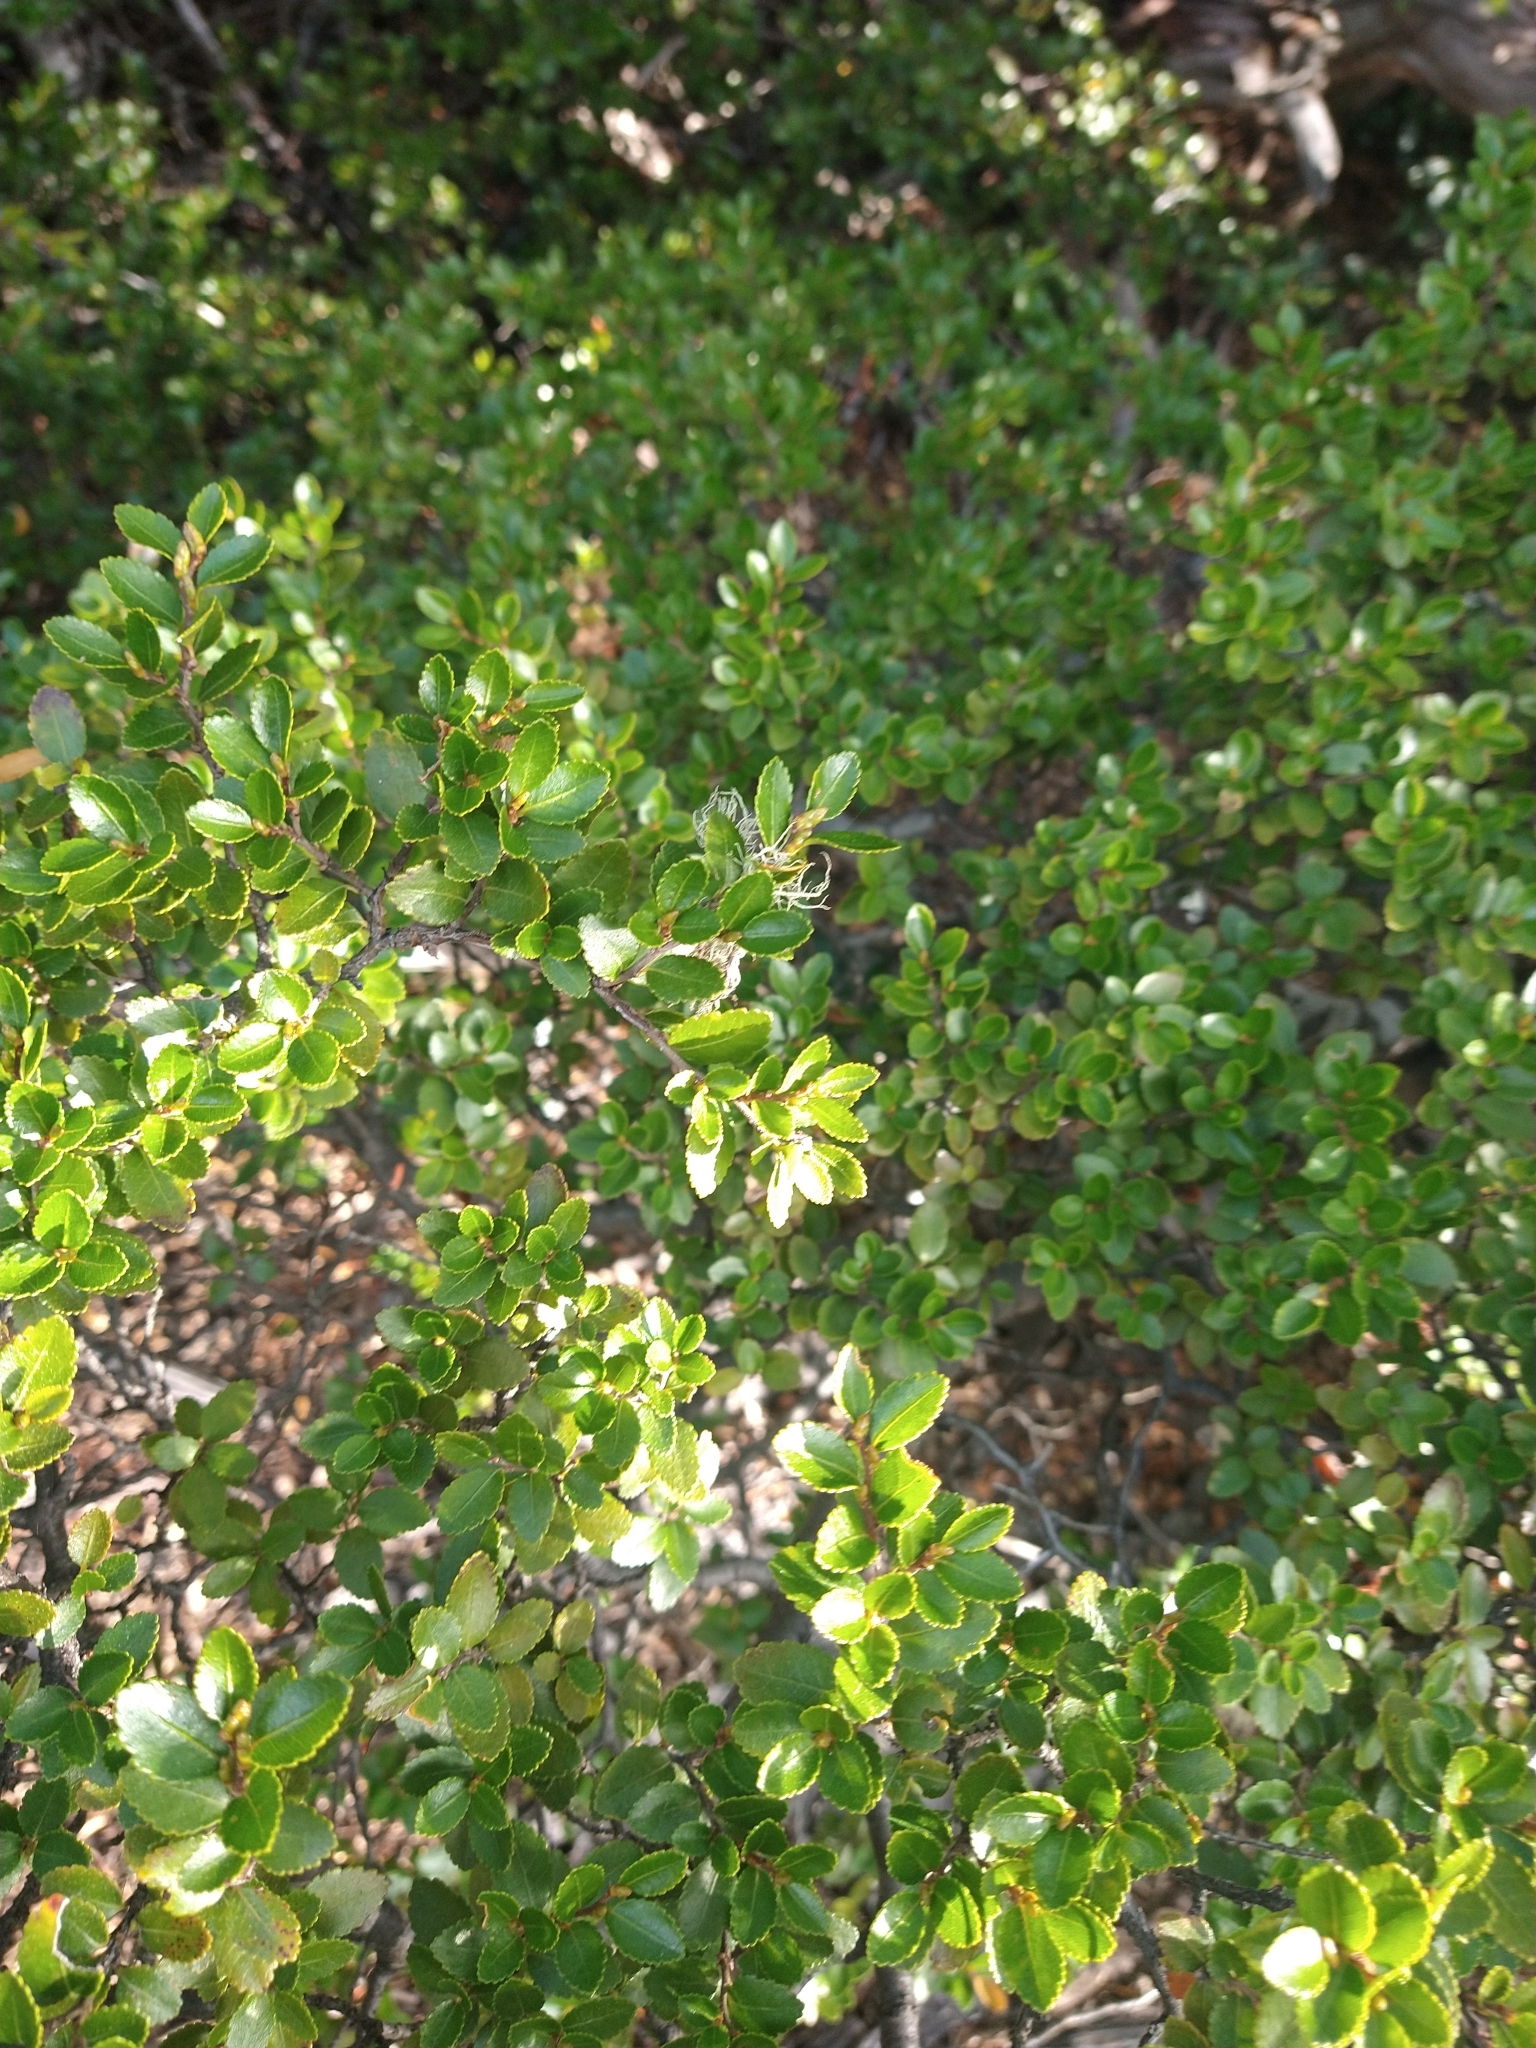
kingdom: Plantae
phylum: Tracheophyta
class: Magnoliopsida
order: Fagales
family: Nothofagaceae
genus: Nothofagus
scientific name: Nothofagus betuloides
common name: Magellan's beech
